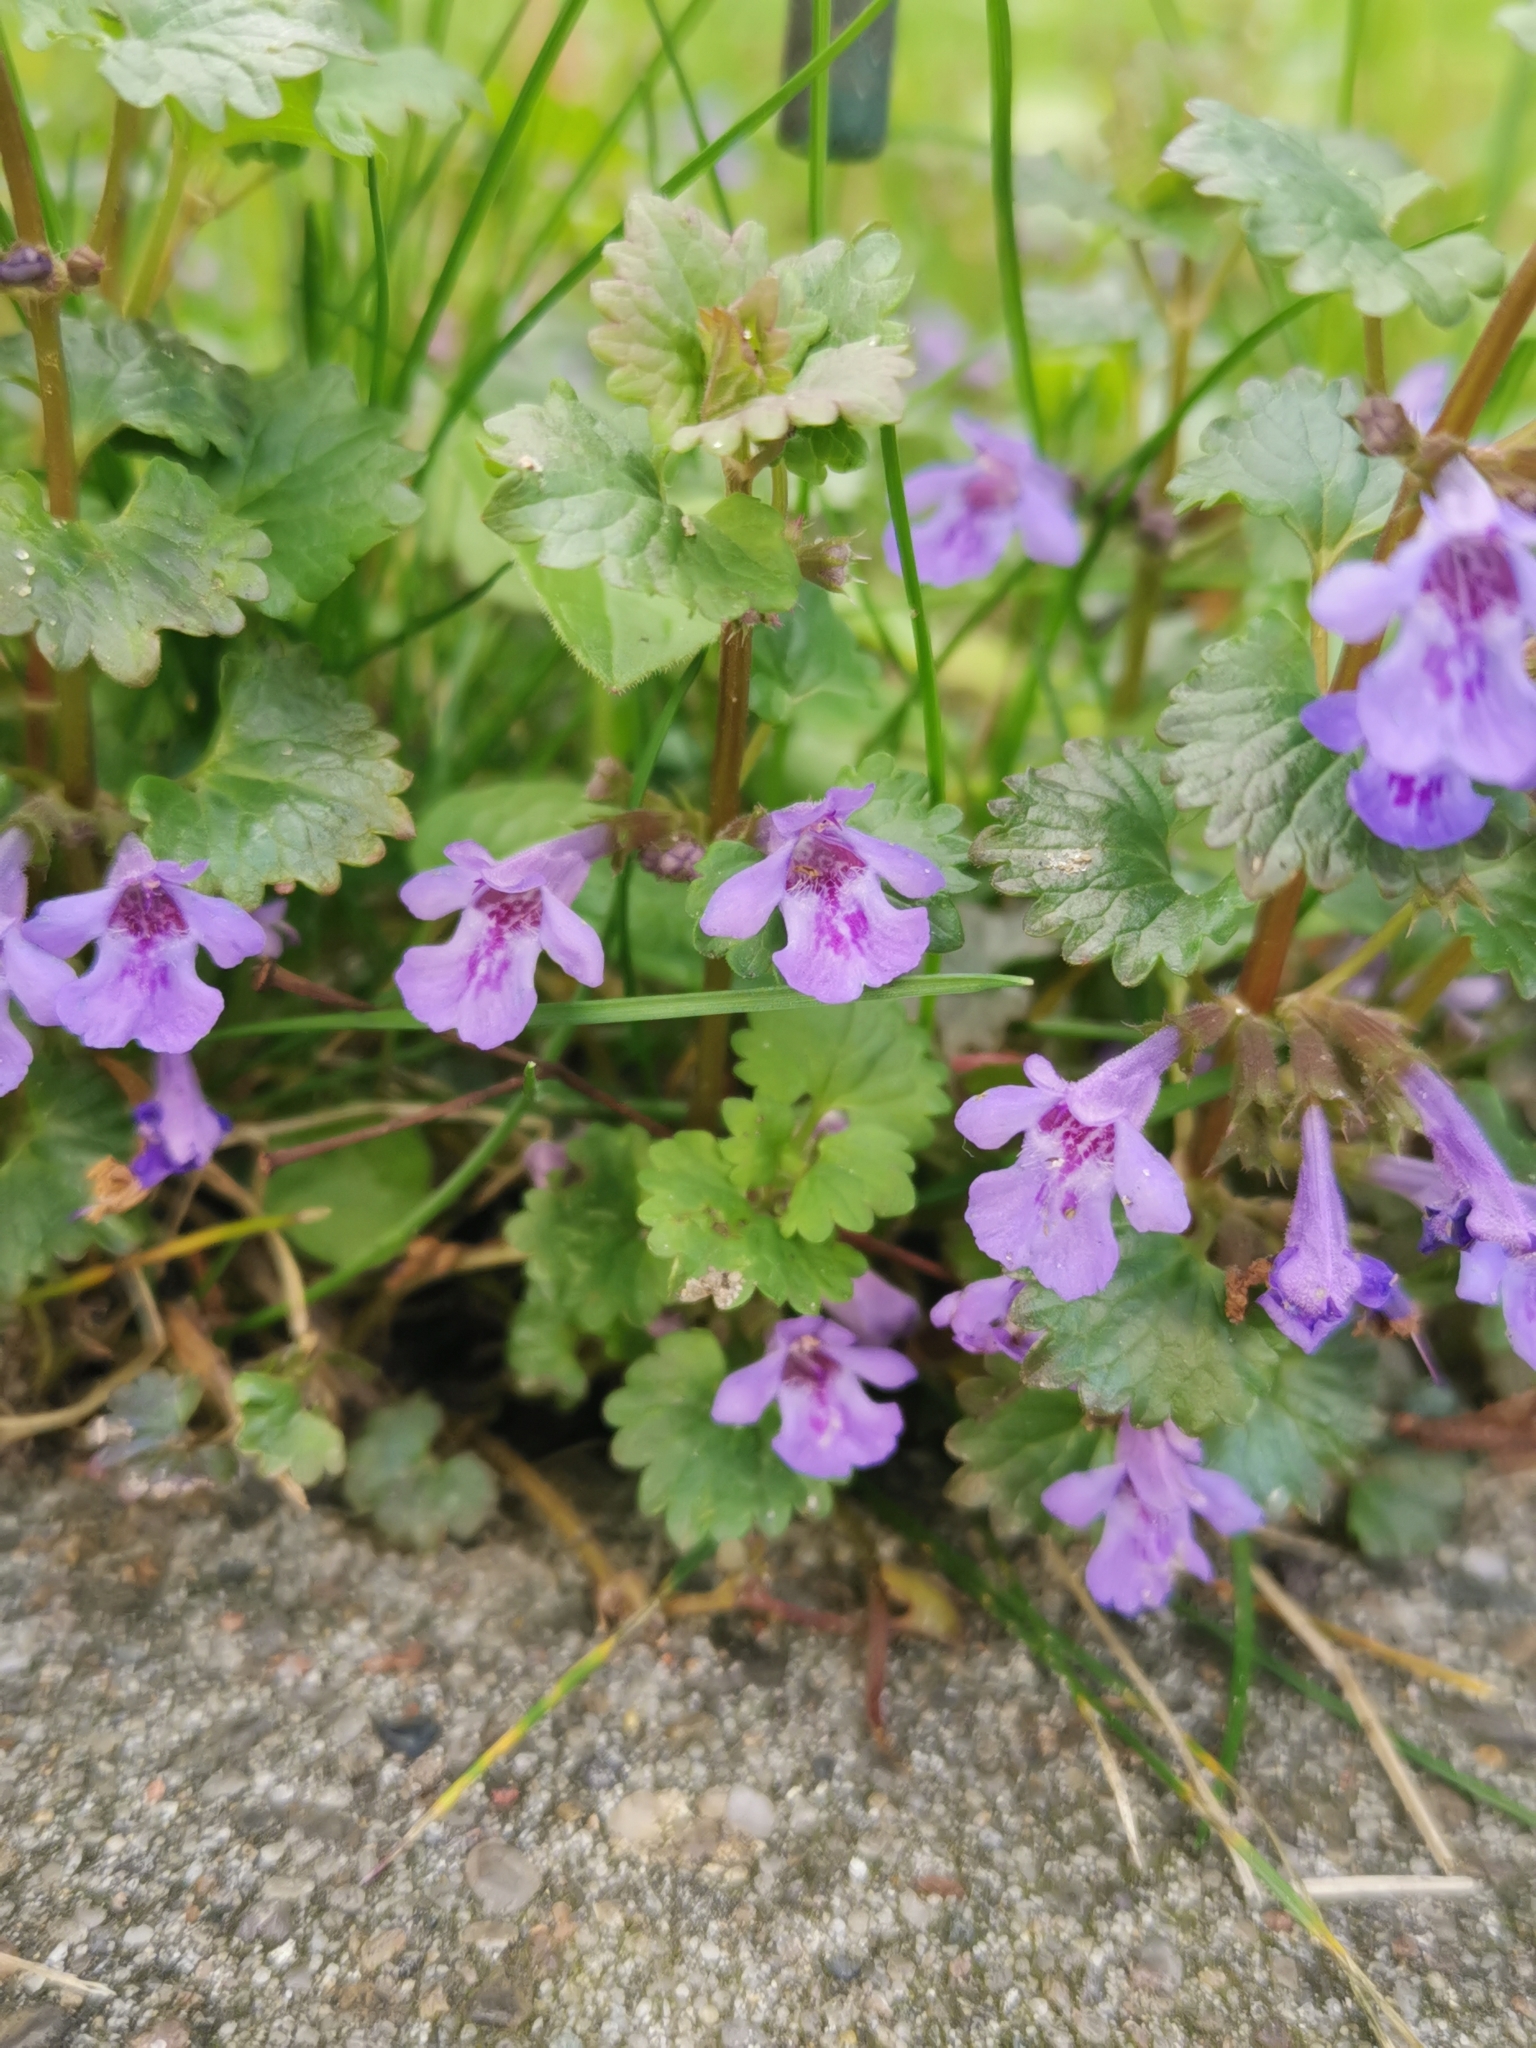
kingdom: Plantae
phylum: Tracheophyta
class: Magnoliopsida
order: Lamiales
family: Lamiaceae
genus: Glechoma
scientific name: Glechoma hederacea
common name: Ground ivy
